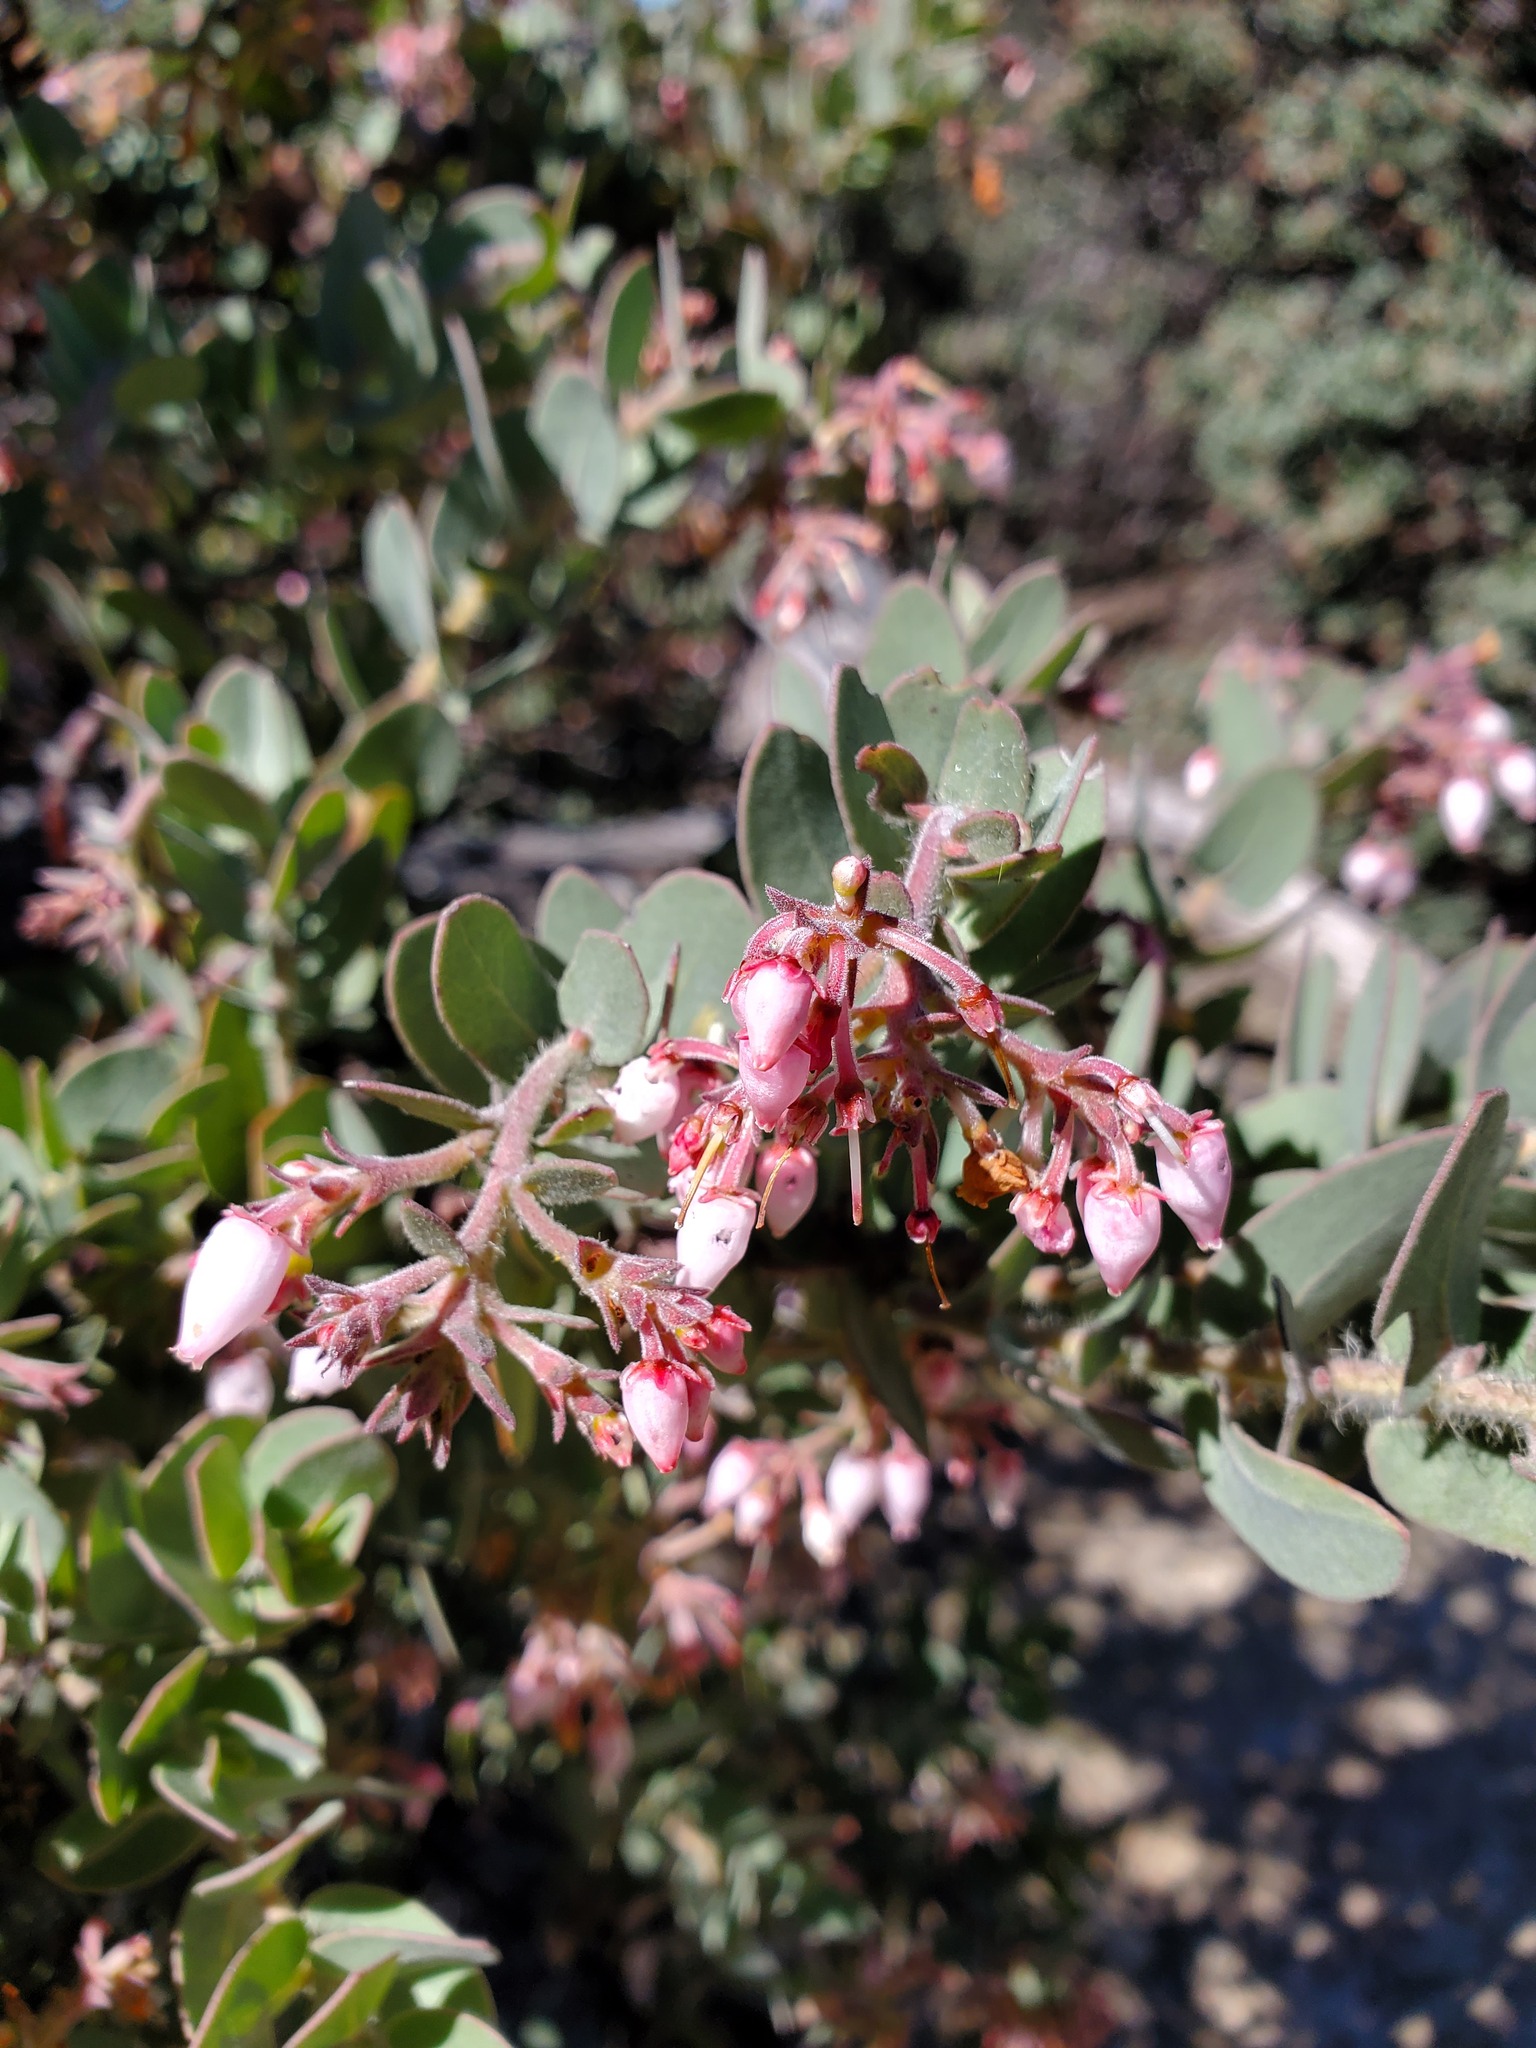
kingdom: Plantae
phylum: Tracheophyta
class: Magnoliopsida
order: Ericales
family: Ericaceae
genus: Arctostaphylos
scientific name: Arctostaphylos auriculata
